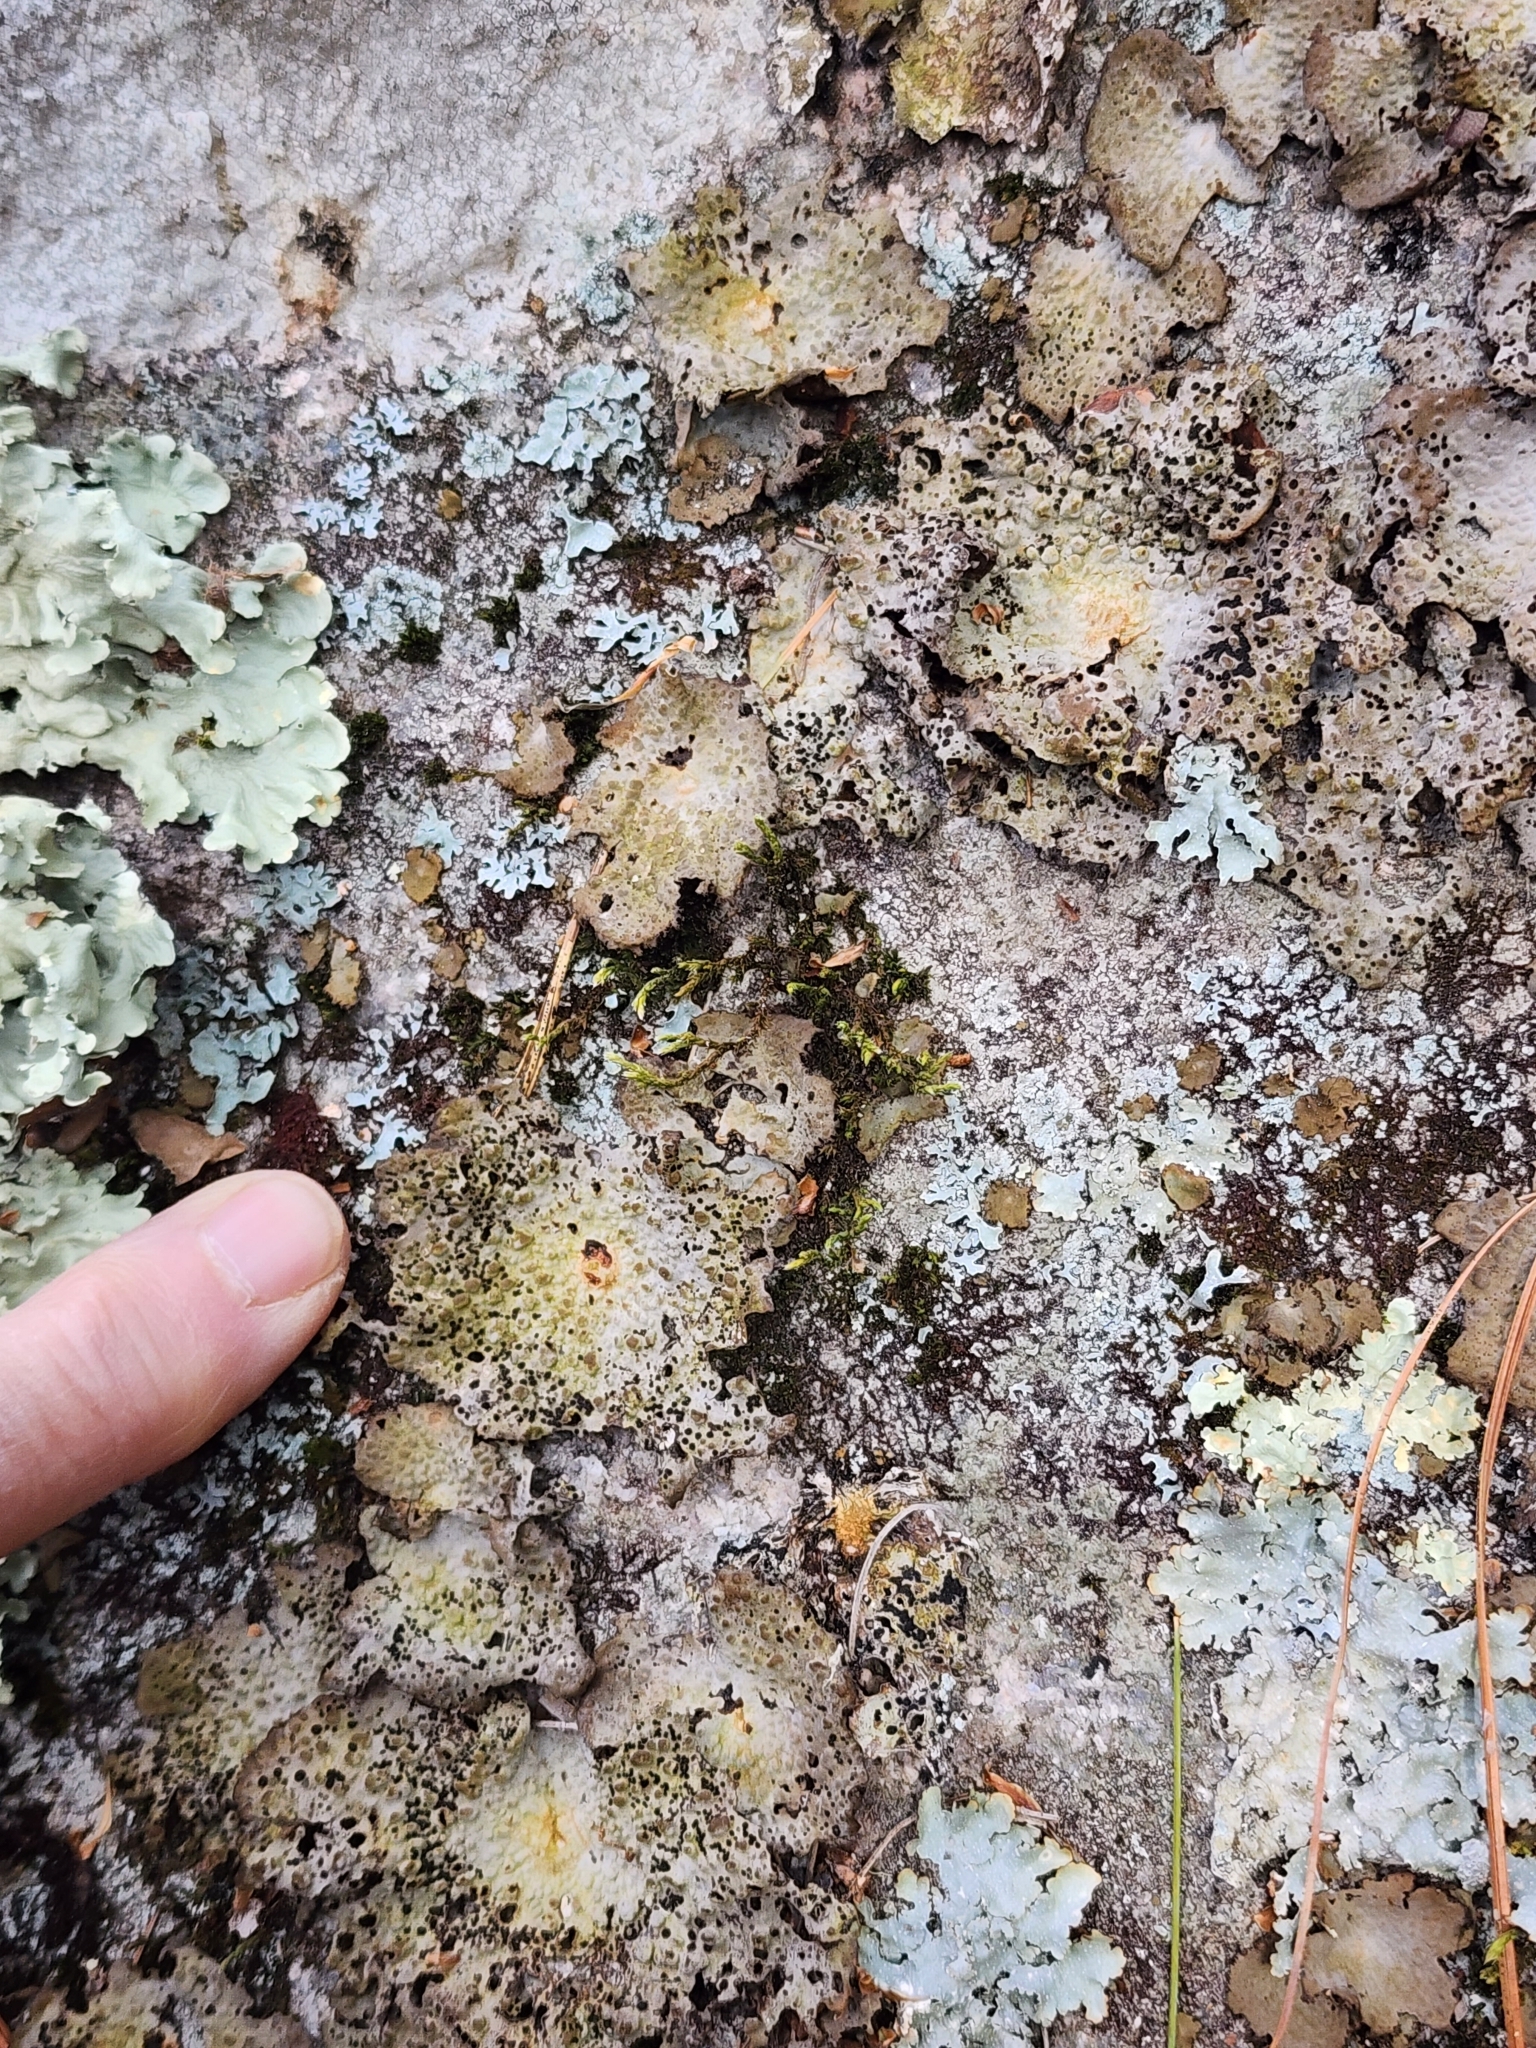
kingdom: Fungi
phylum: Ascomycota
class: Lecanoromycetes
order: Umbilicariales
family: Umbilicariaceae
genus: Lasallia
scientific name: Lasallia papulosa
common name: Common toadskin lichen
